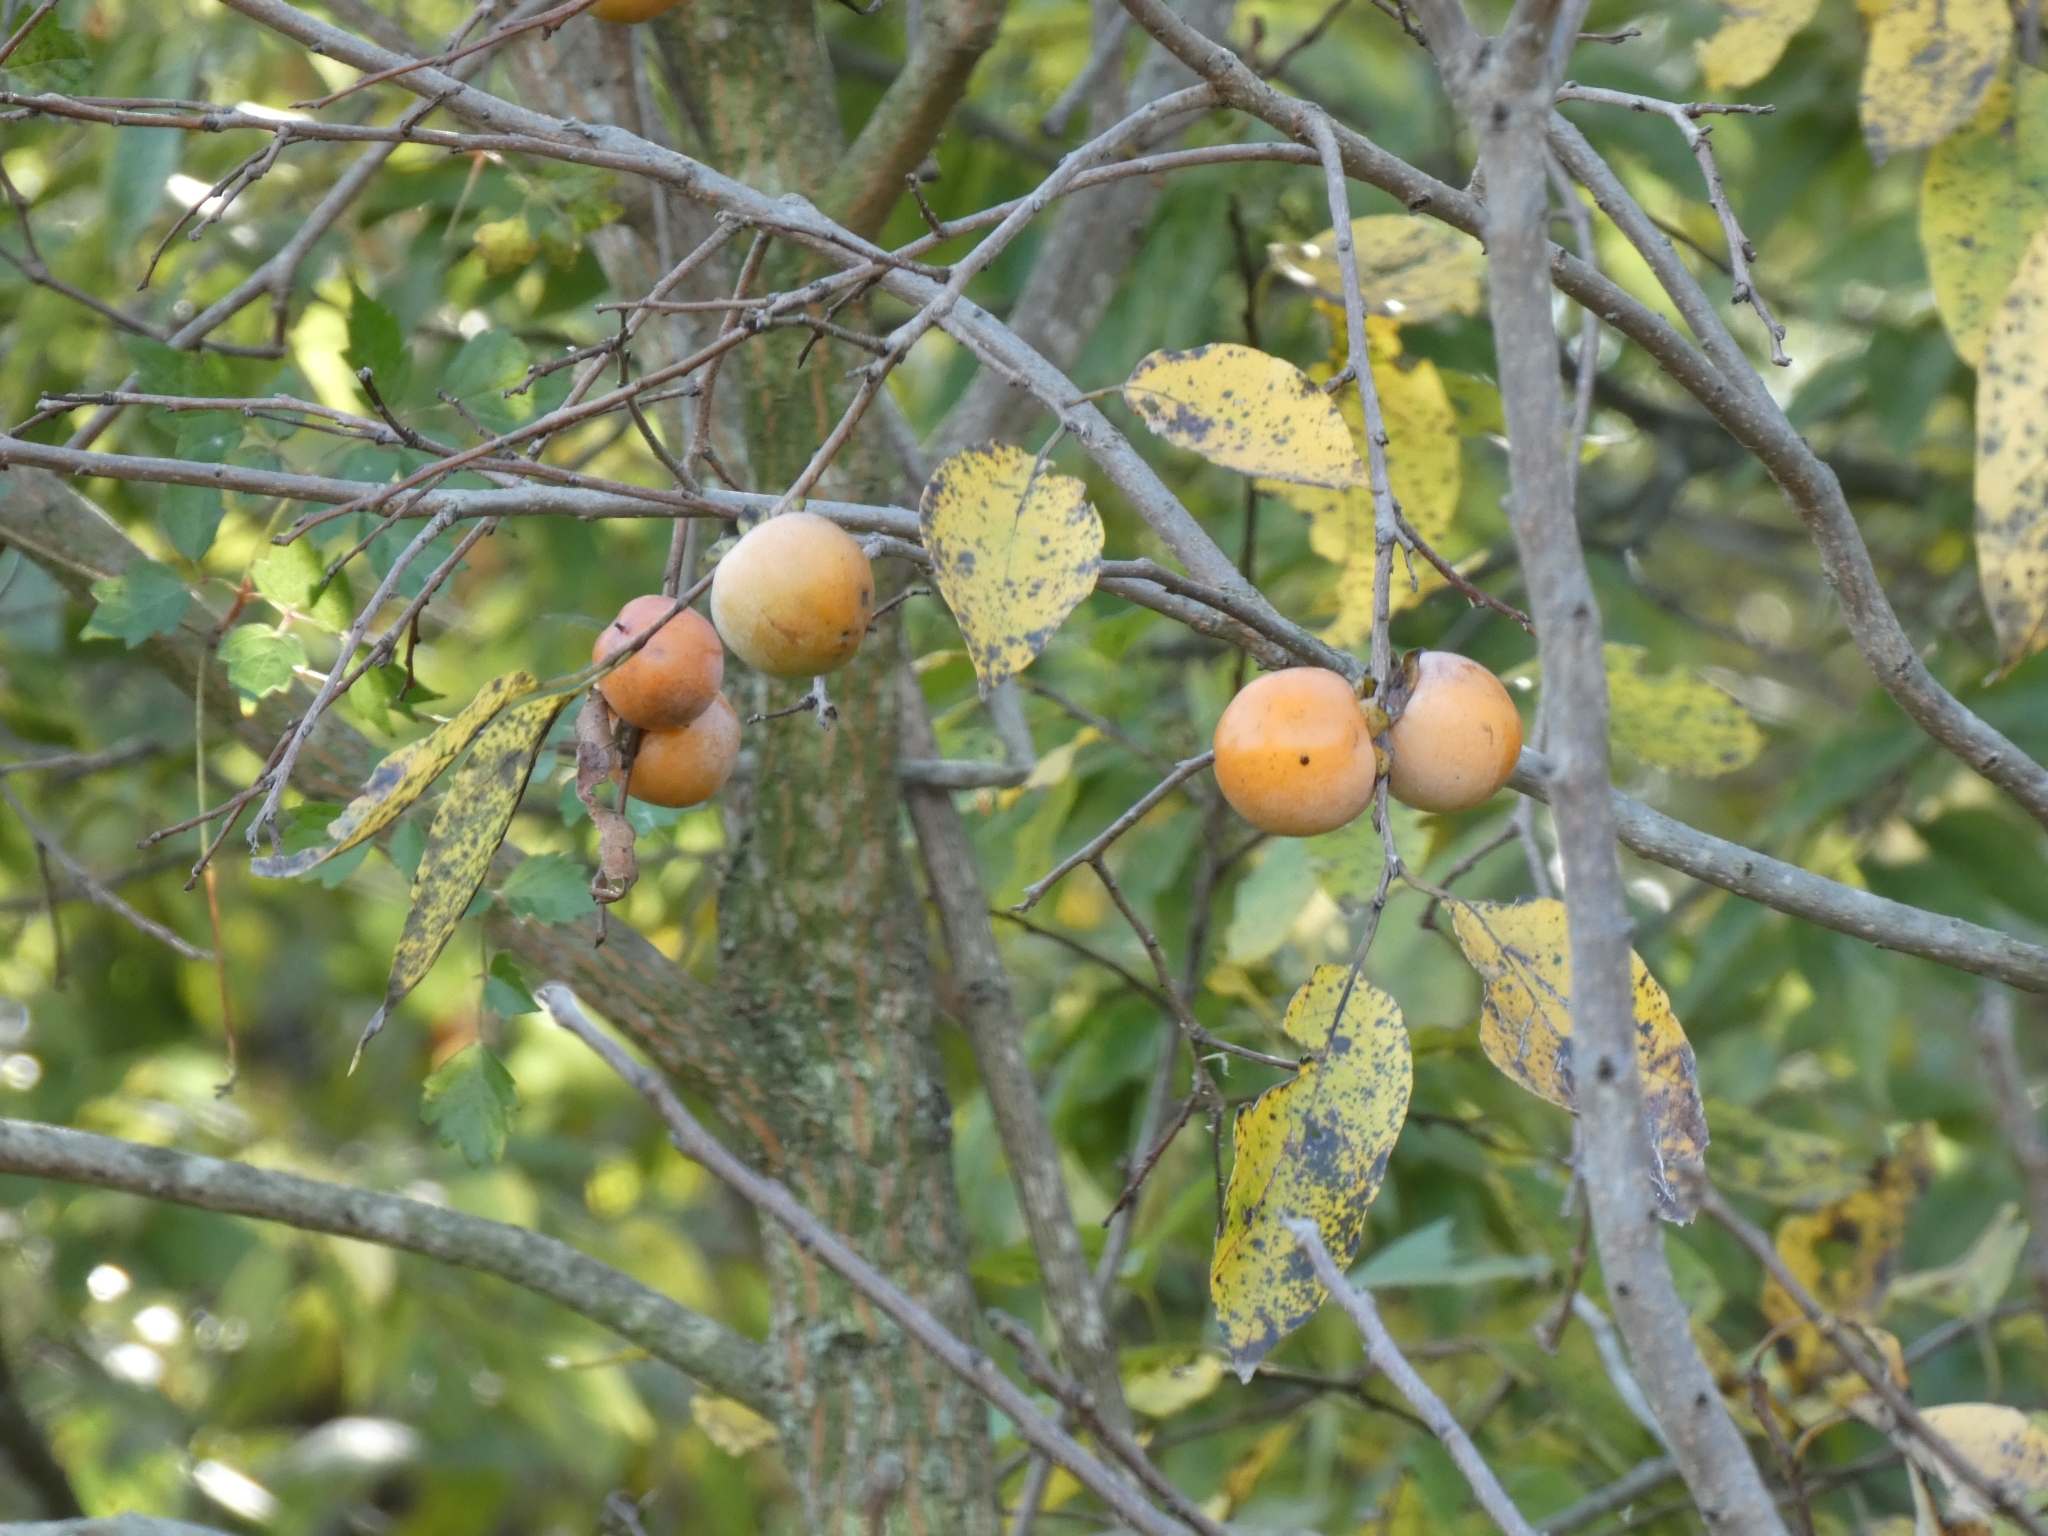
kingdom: Plantae
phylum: Tracheophyta
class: Magnoliopsida
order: Ericales
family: Ebenaceae
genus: Diospyros
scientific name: Diospyros virginiana
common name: Persimmon
